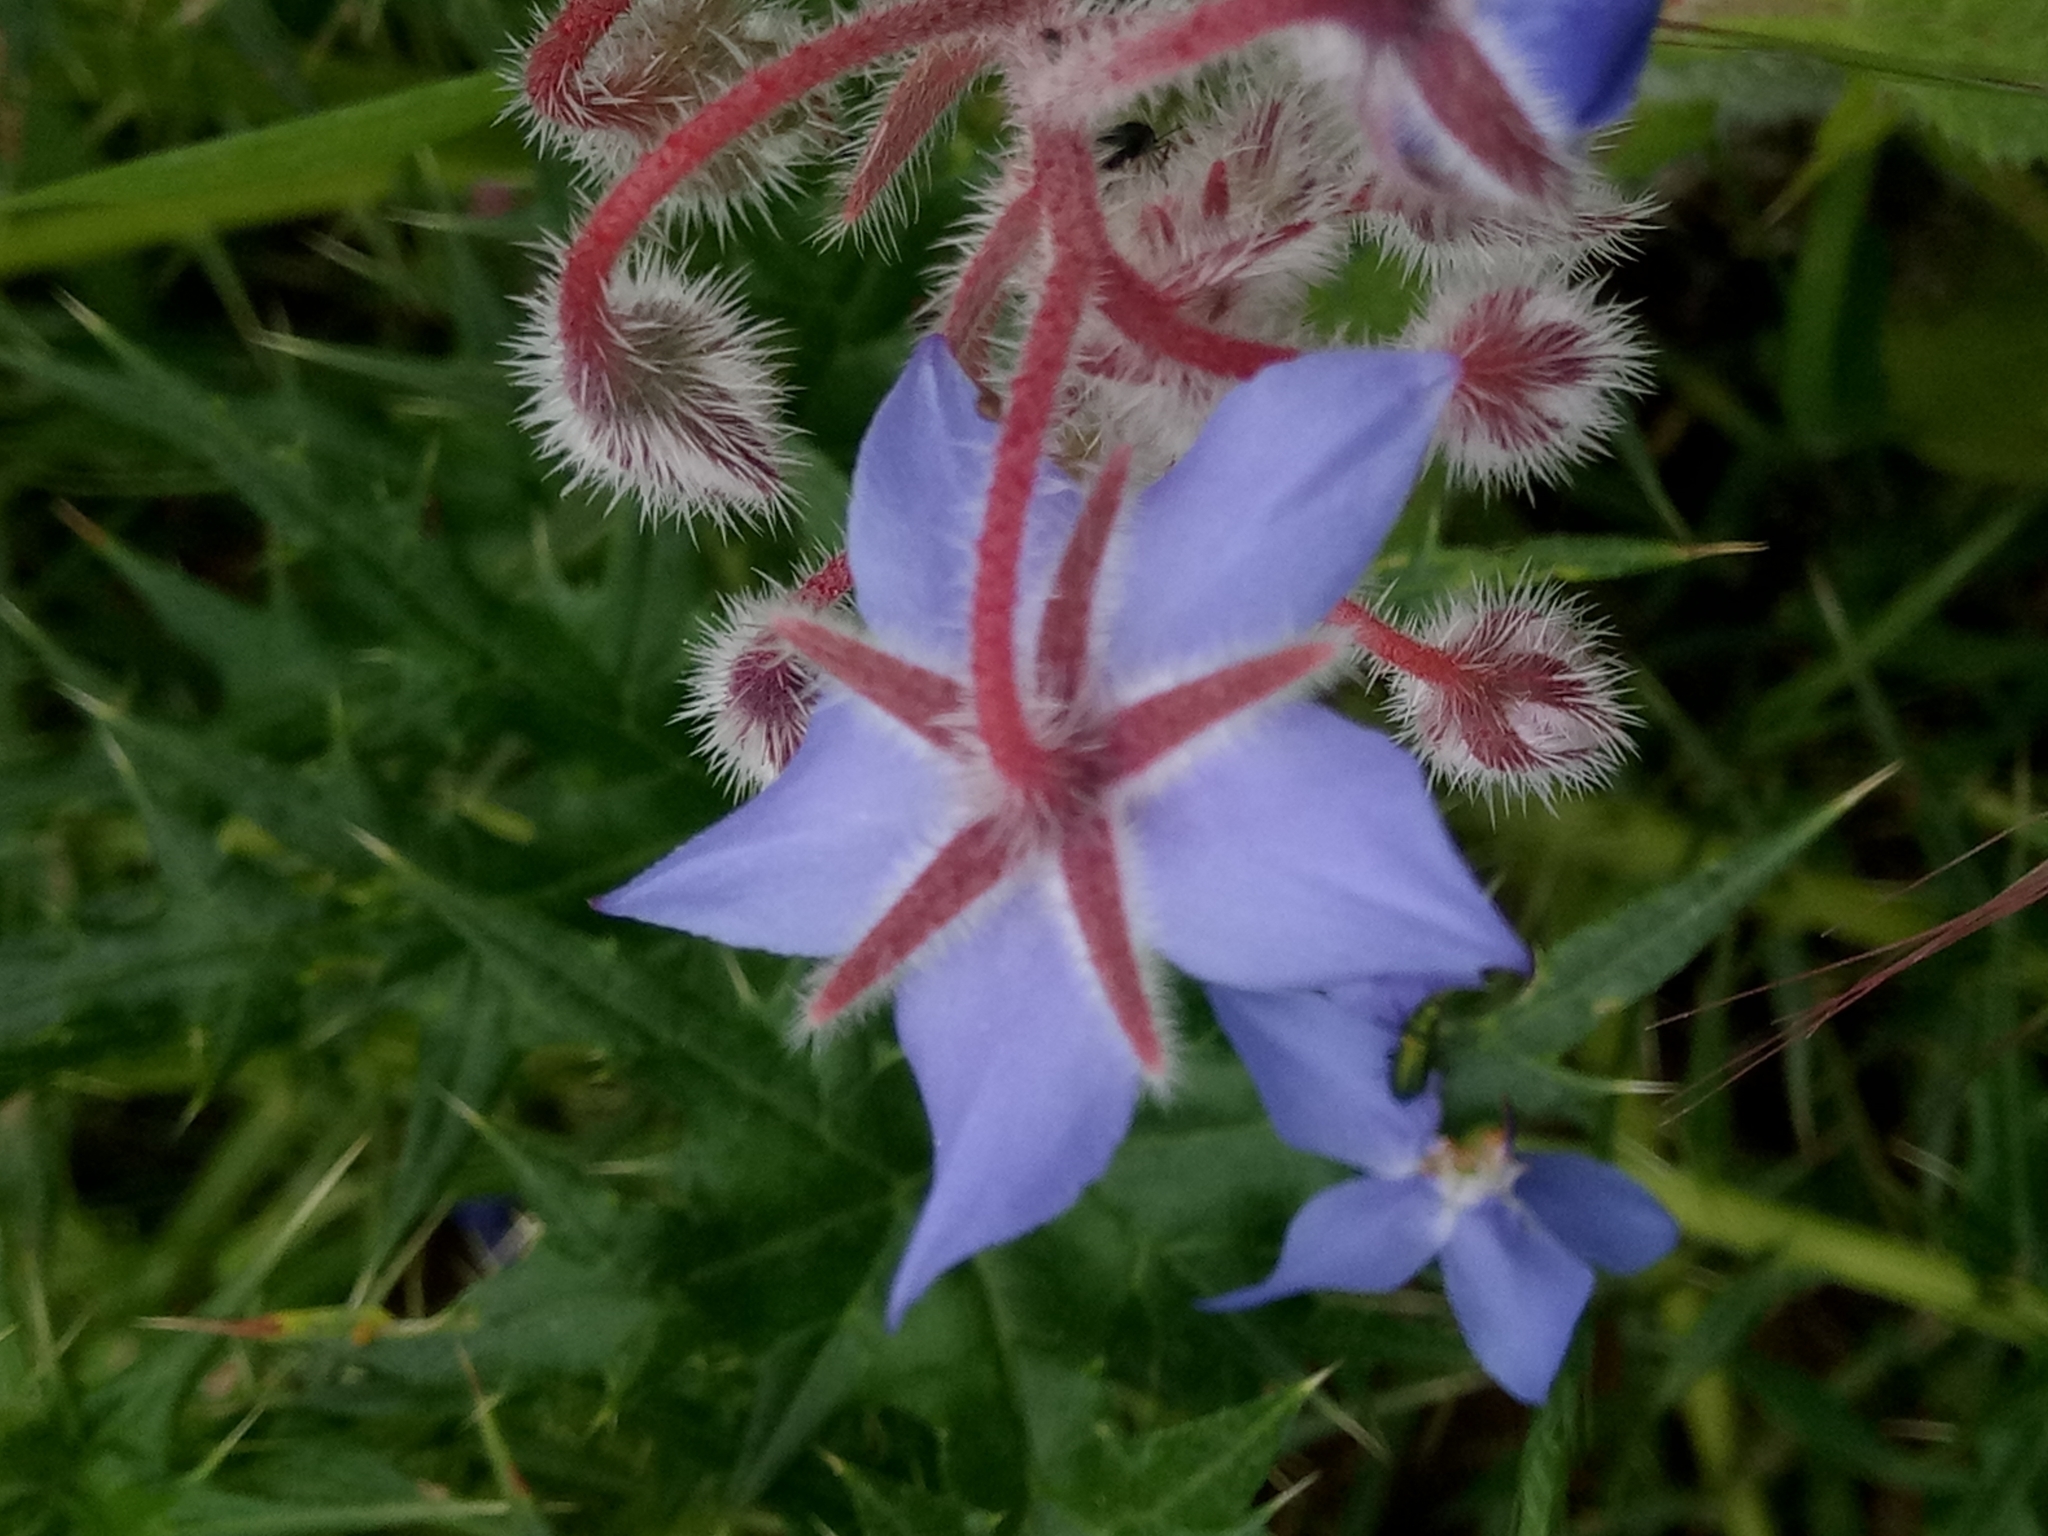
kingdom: Plantae
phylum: Tracheophyta
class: Magnoliopsida
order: Boraginales
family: Boraginaceae
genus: Borago
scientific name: Borago officinalis
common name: Borage
